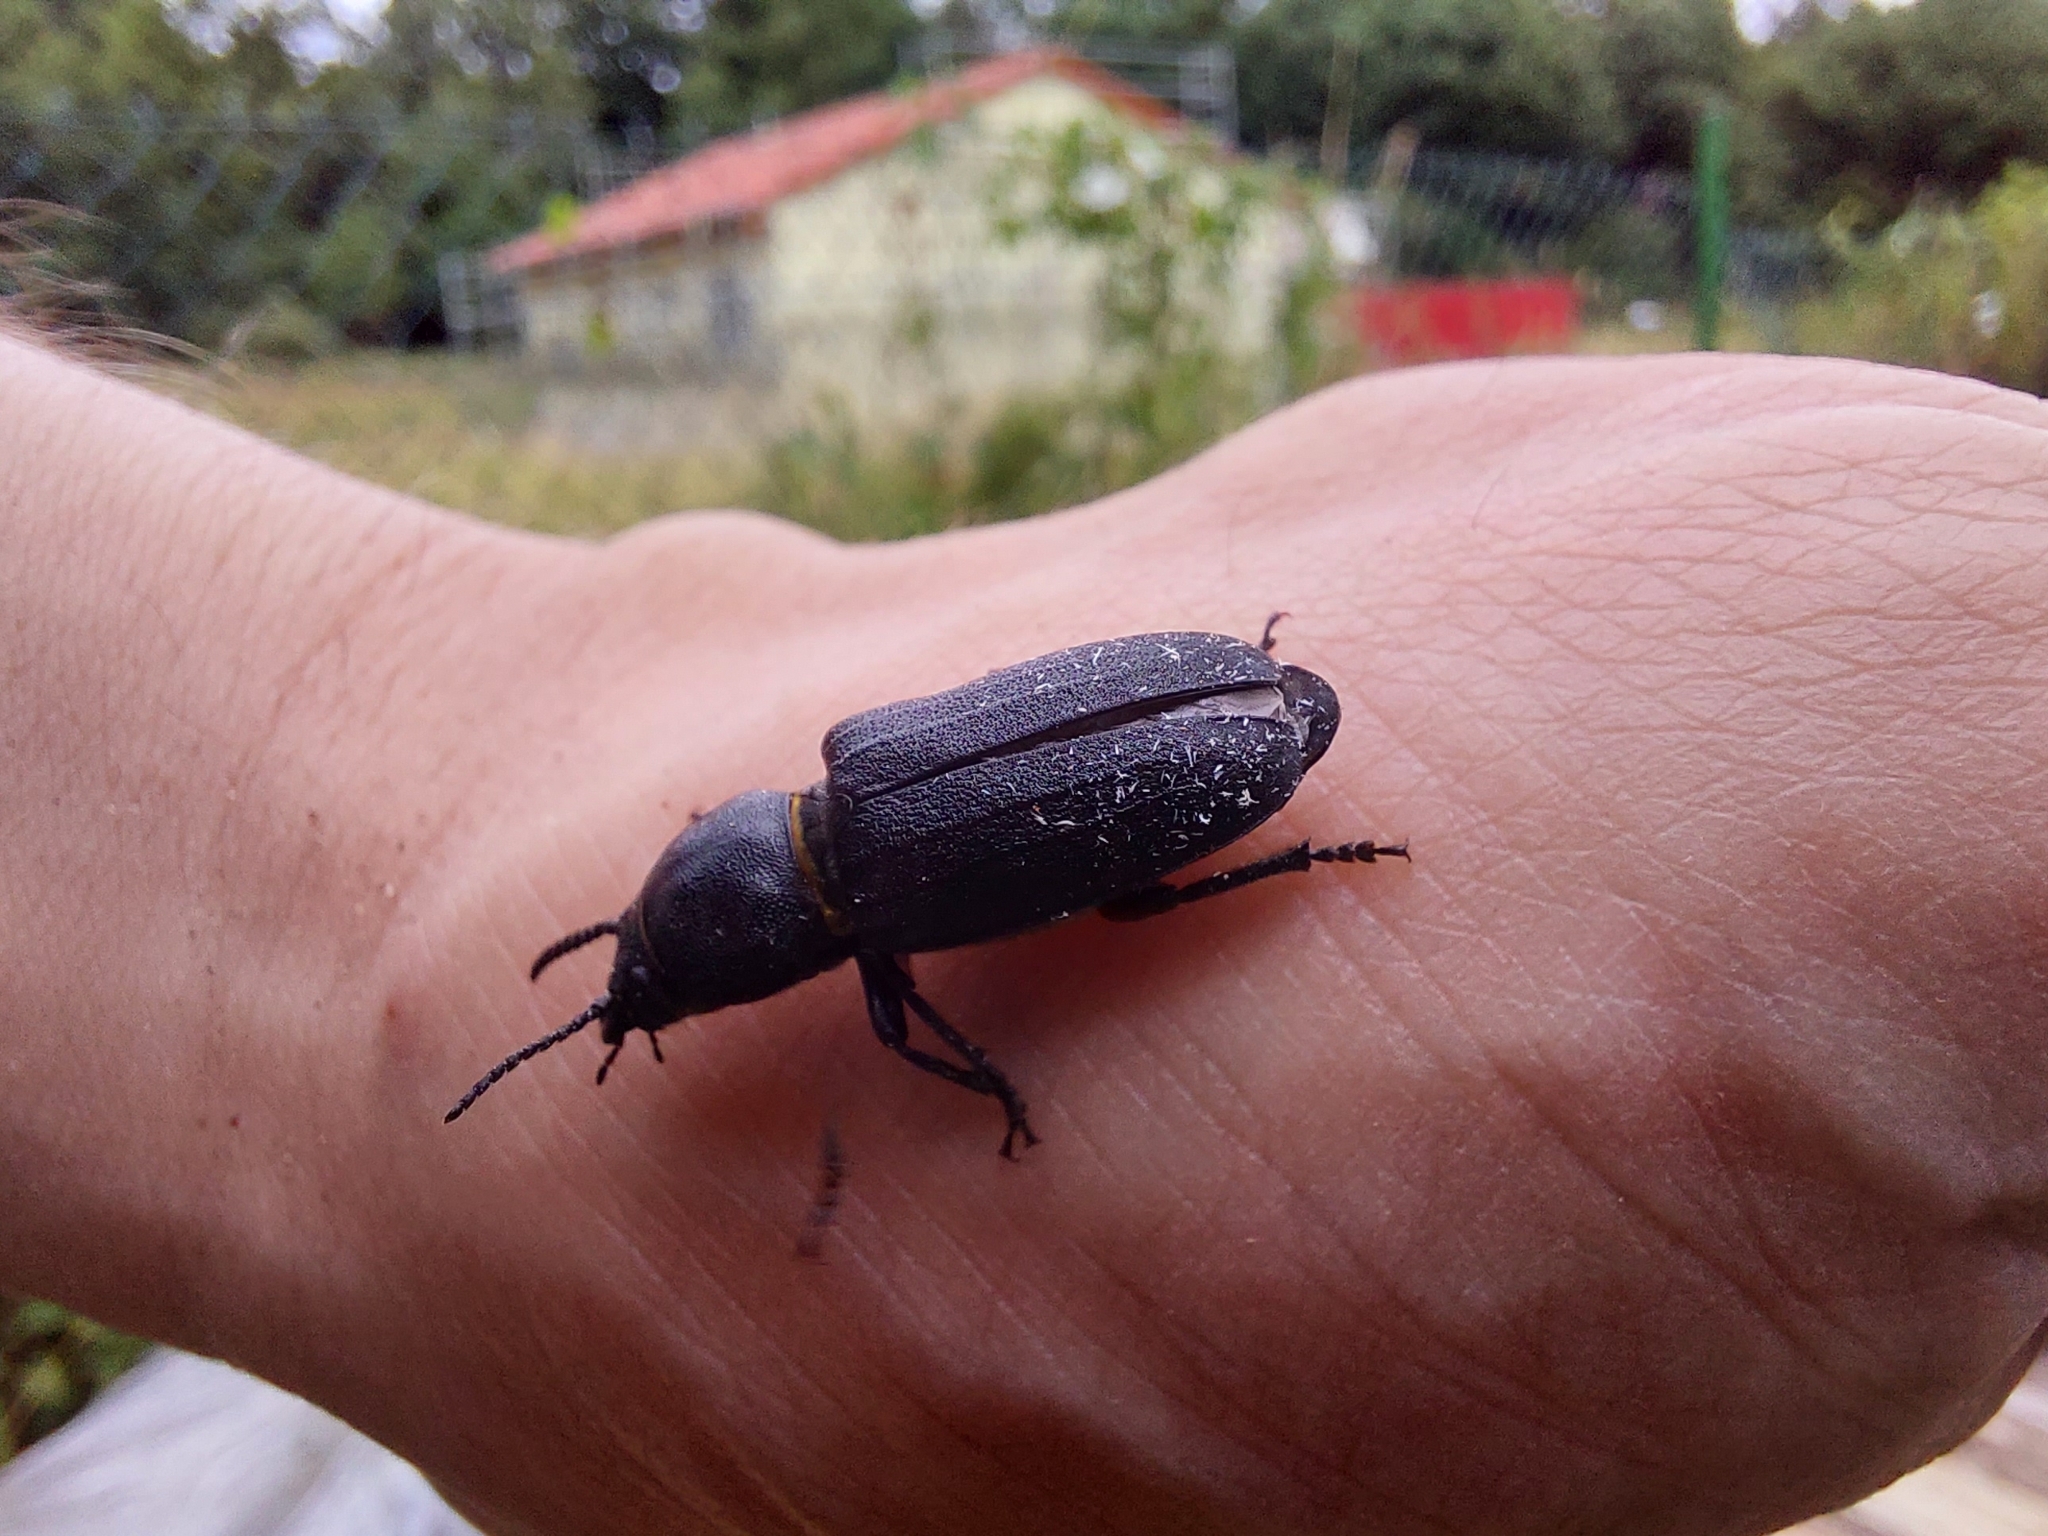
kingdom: Animalia
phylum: Arthropoda
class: Insecta
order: Coleoptera
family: Cerambycidae
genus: Spondylis
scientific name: Spondylis buprestoides
